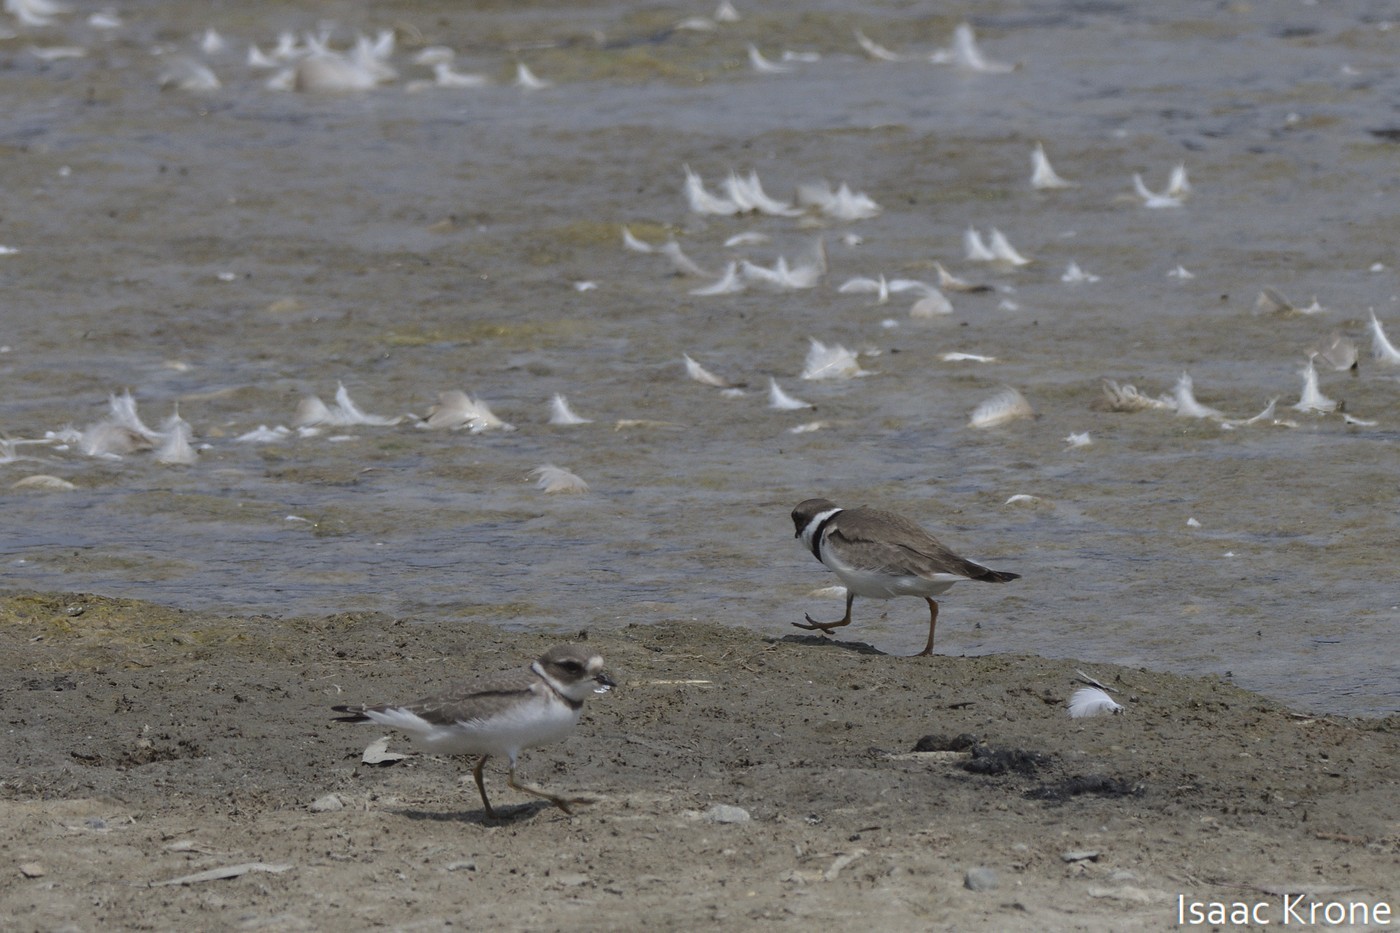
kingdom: Animalia
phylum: Chordata
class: Aves
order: Charadriiformes
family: Charadriidae
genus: Charadrius
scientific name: Charadrius semipalmatus
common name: Semipalmated plover
